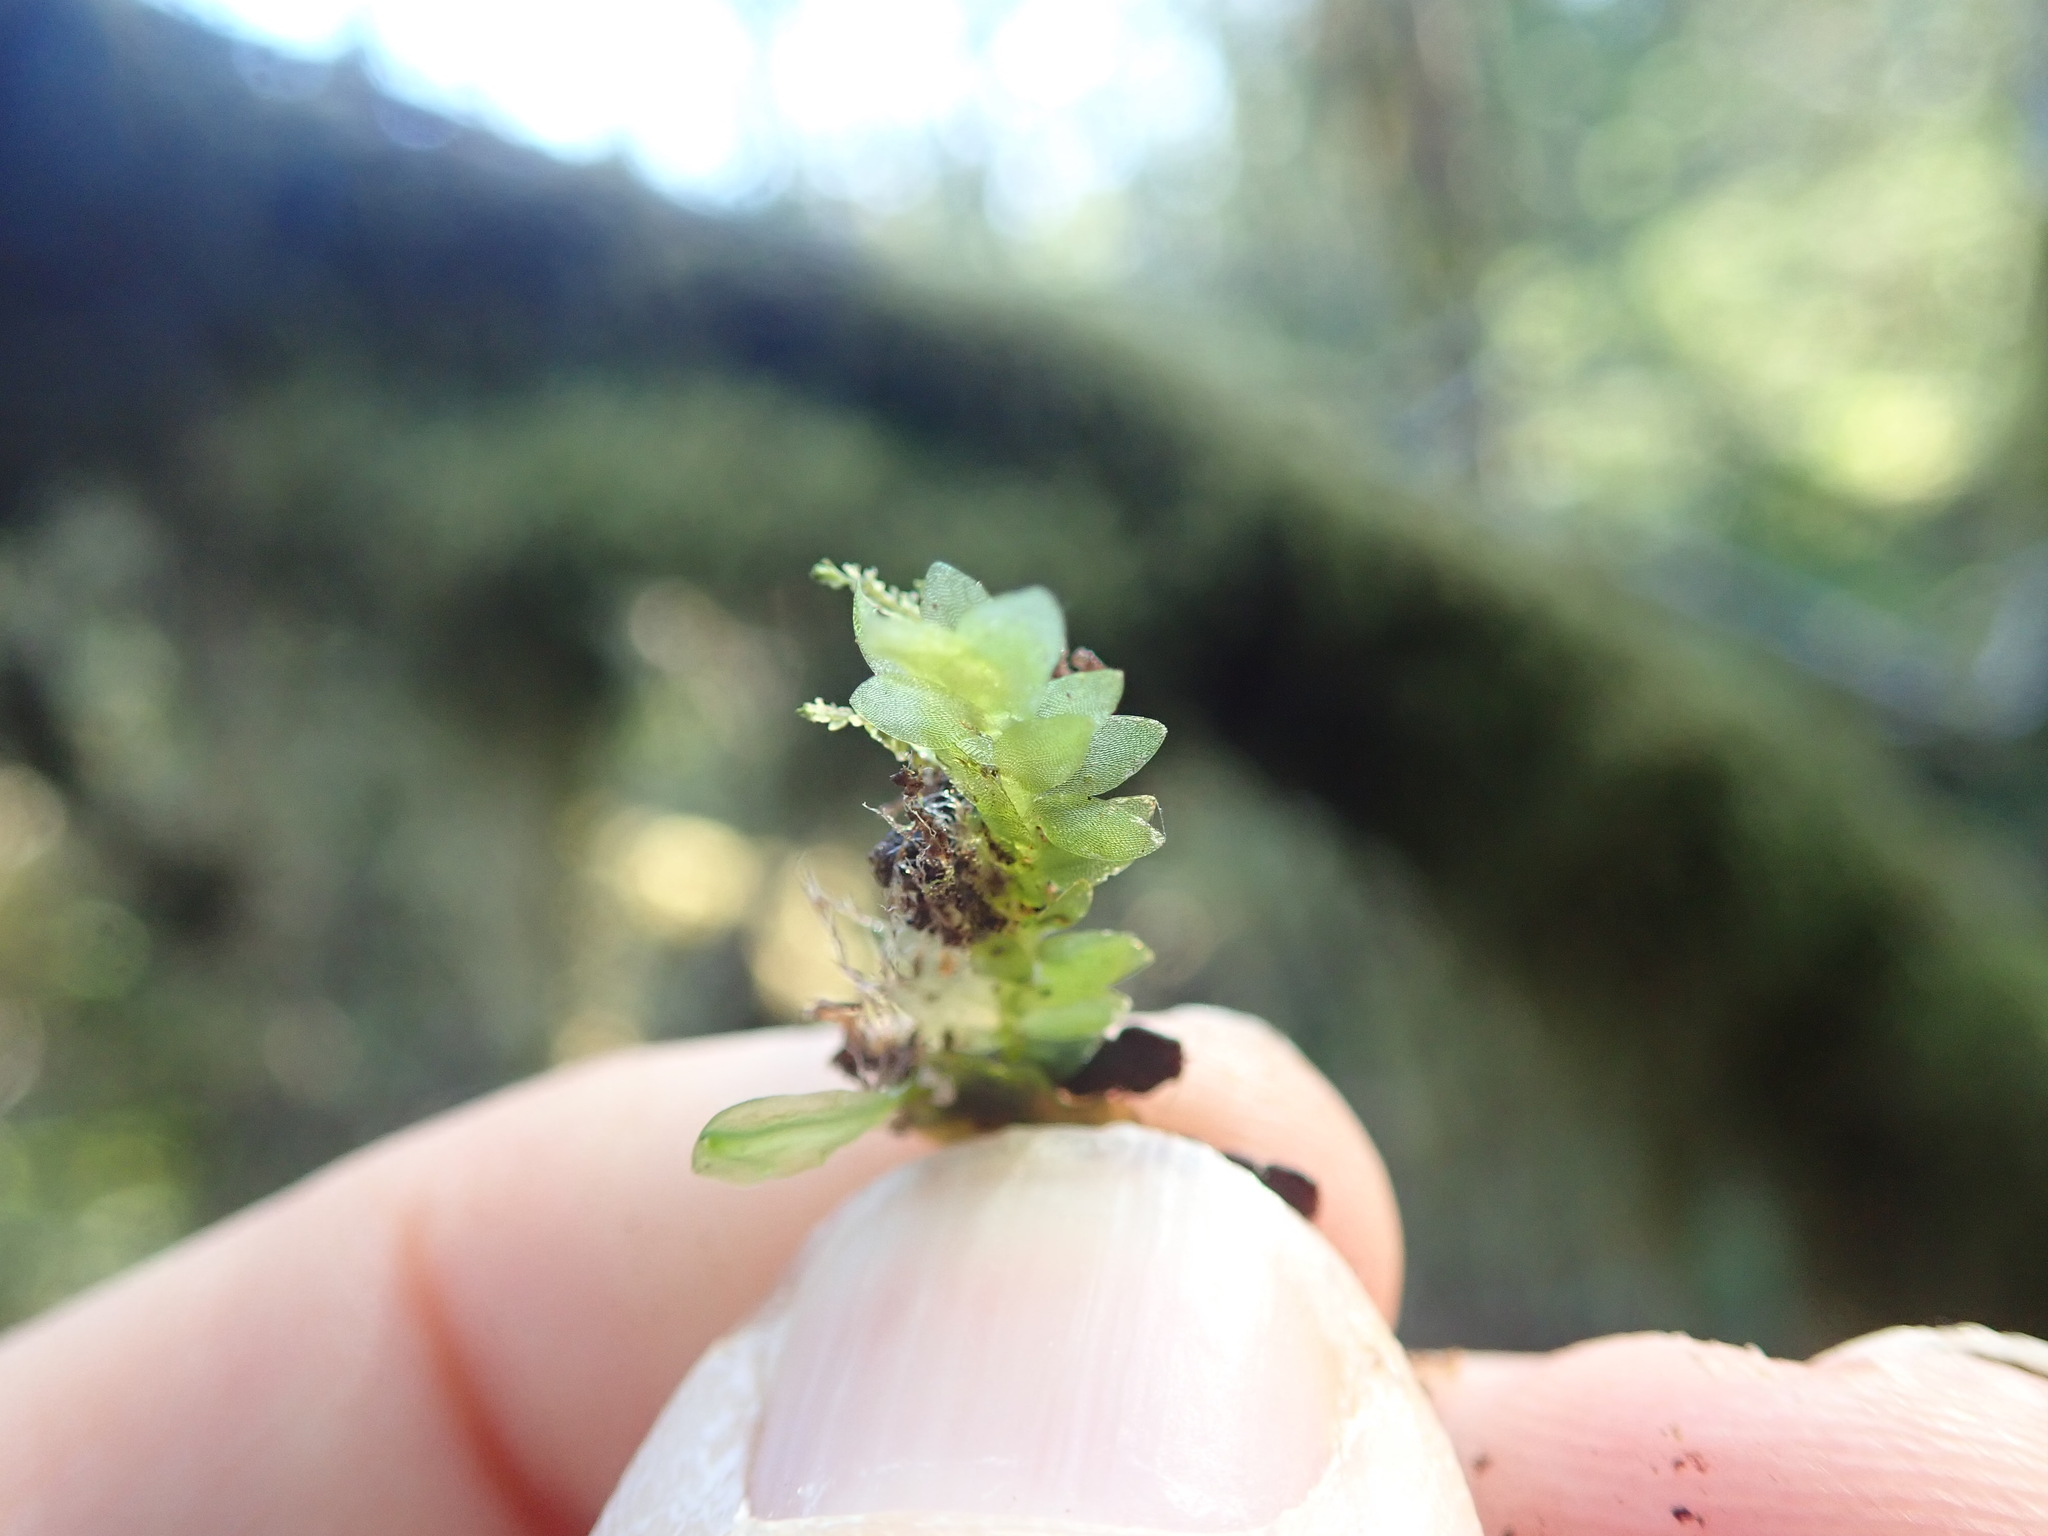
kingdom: Plantae
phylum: Bryophyta
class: Bryopsida
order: Hookeriales
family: Hookeriaceae
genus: Hookeria
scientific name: Hookeria lucens
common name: Shining hookeria
